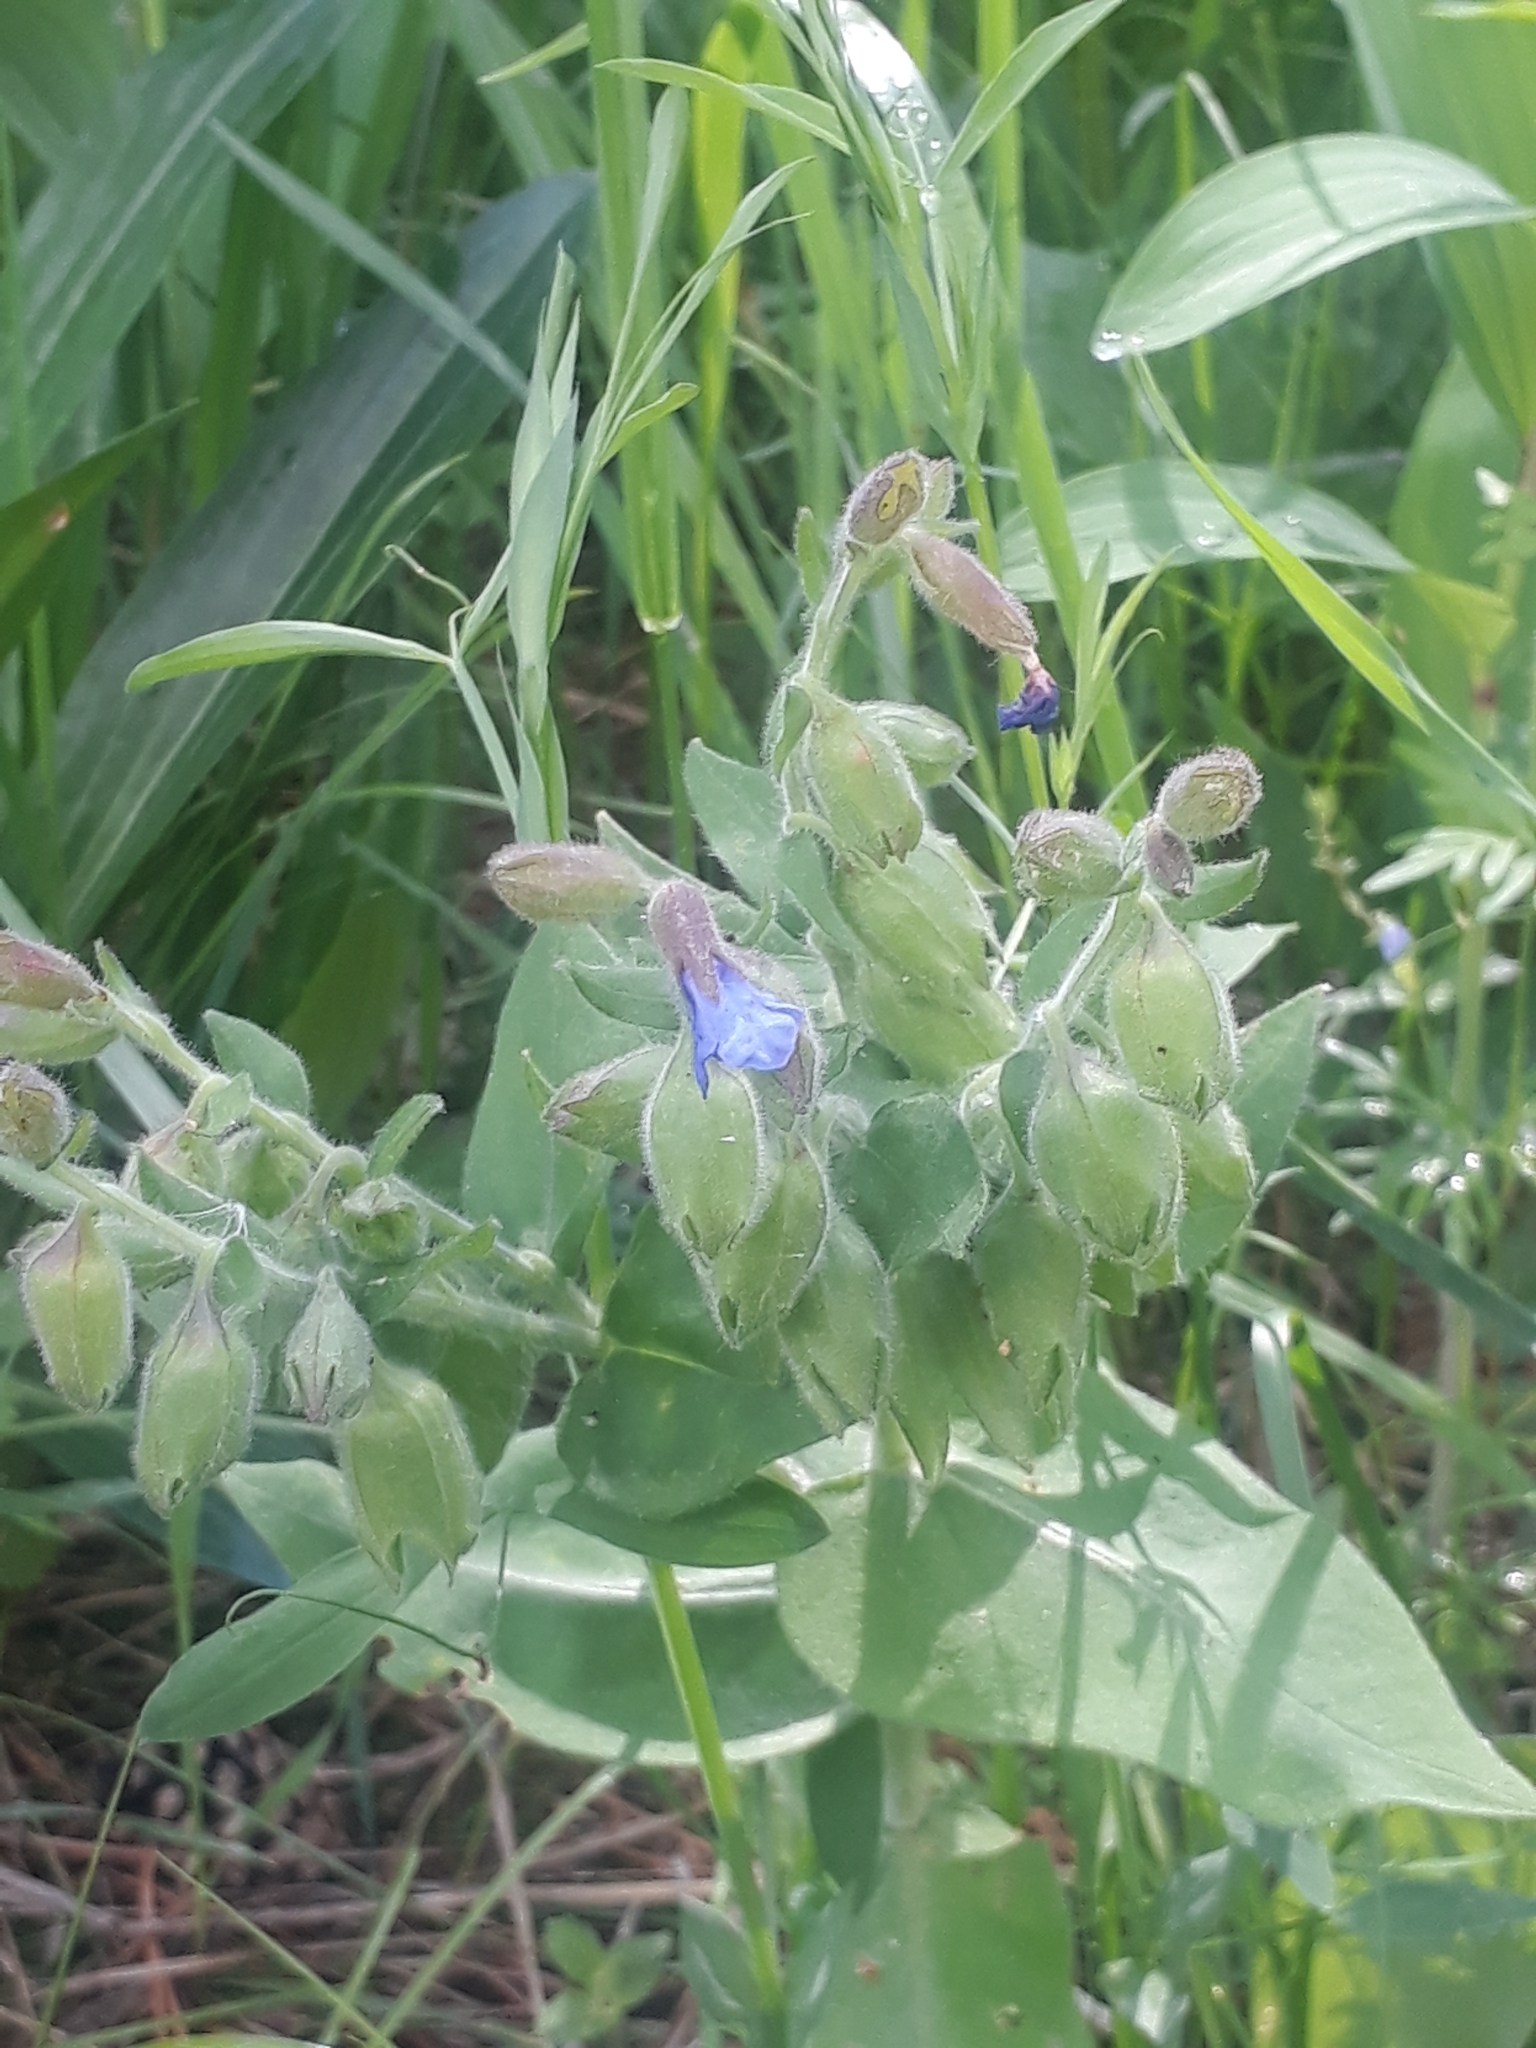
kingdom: Plantae
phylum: Tracheophyta
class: Magnoliopsida
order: Boraginales
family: Boraginaceae
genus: Pulmonaria
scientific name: Pulmonaria mollis
